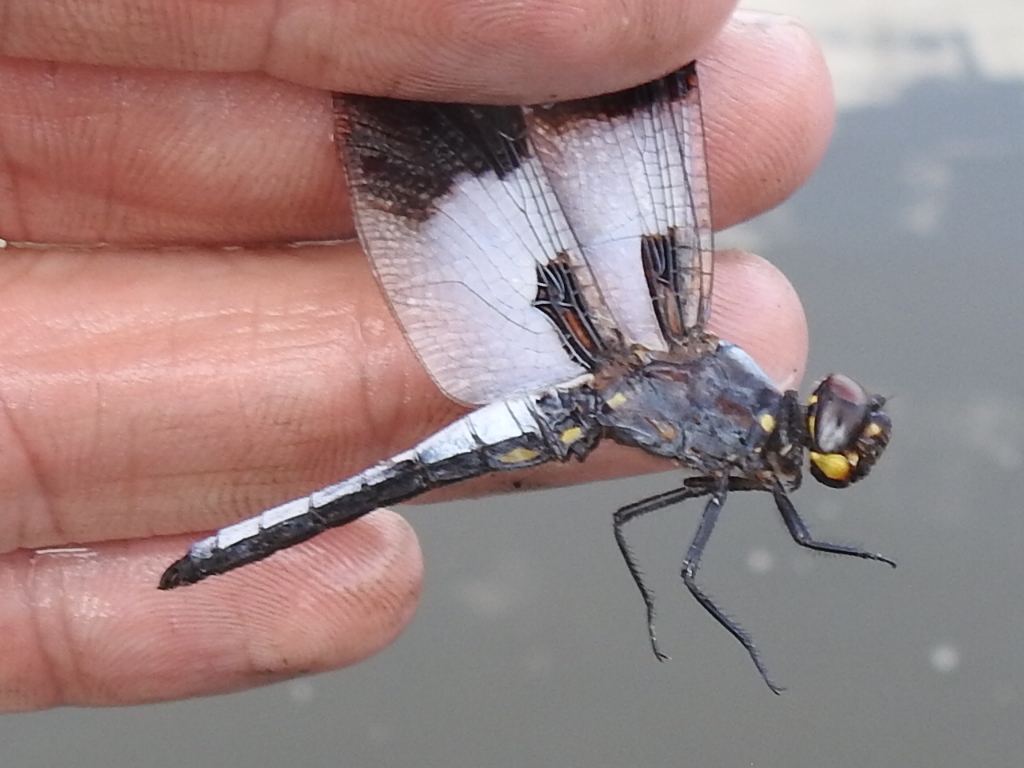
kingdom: Animalia
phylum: Arthropoda
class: Insecta
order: Odonata
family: Libellulidae
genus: Plathemis
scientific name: Plathemis subornata
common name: Desert whitetail
